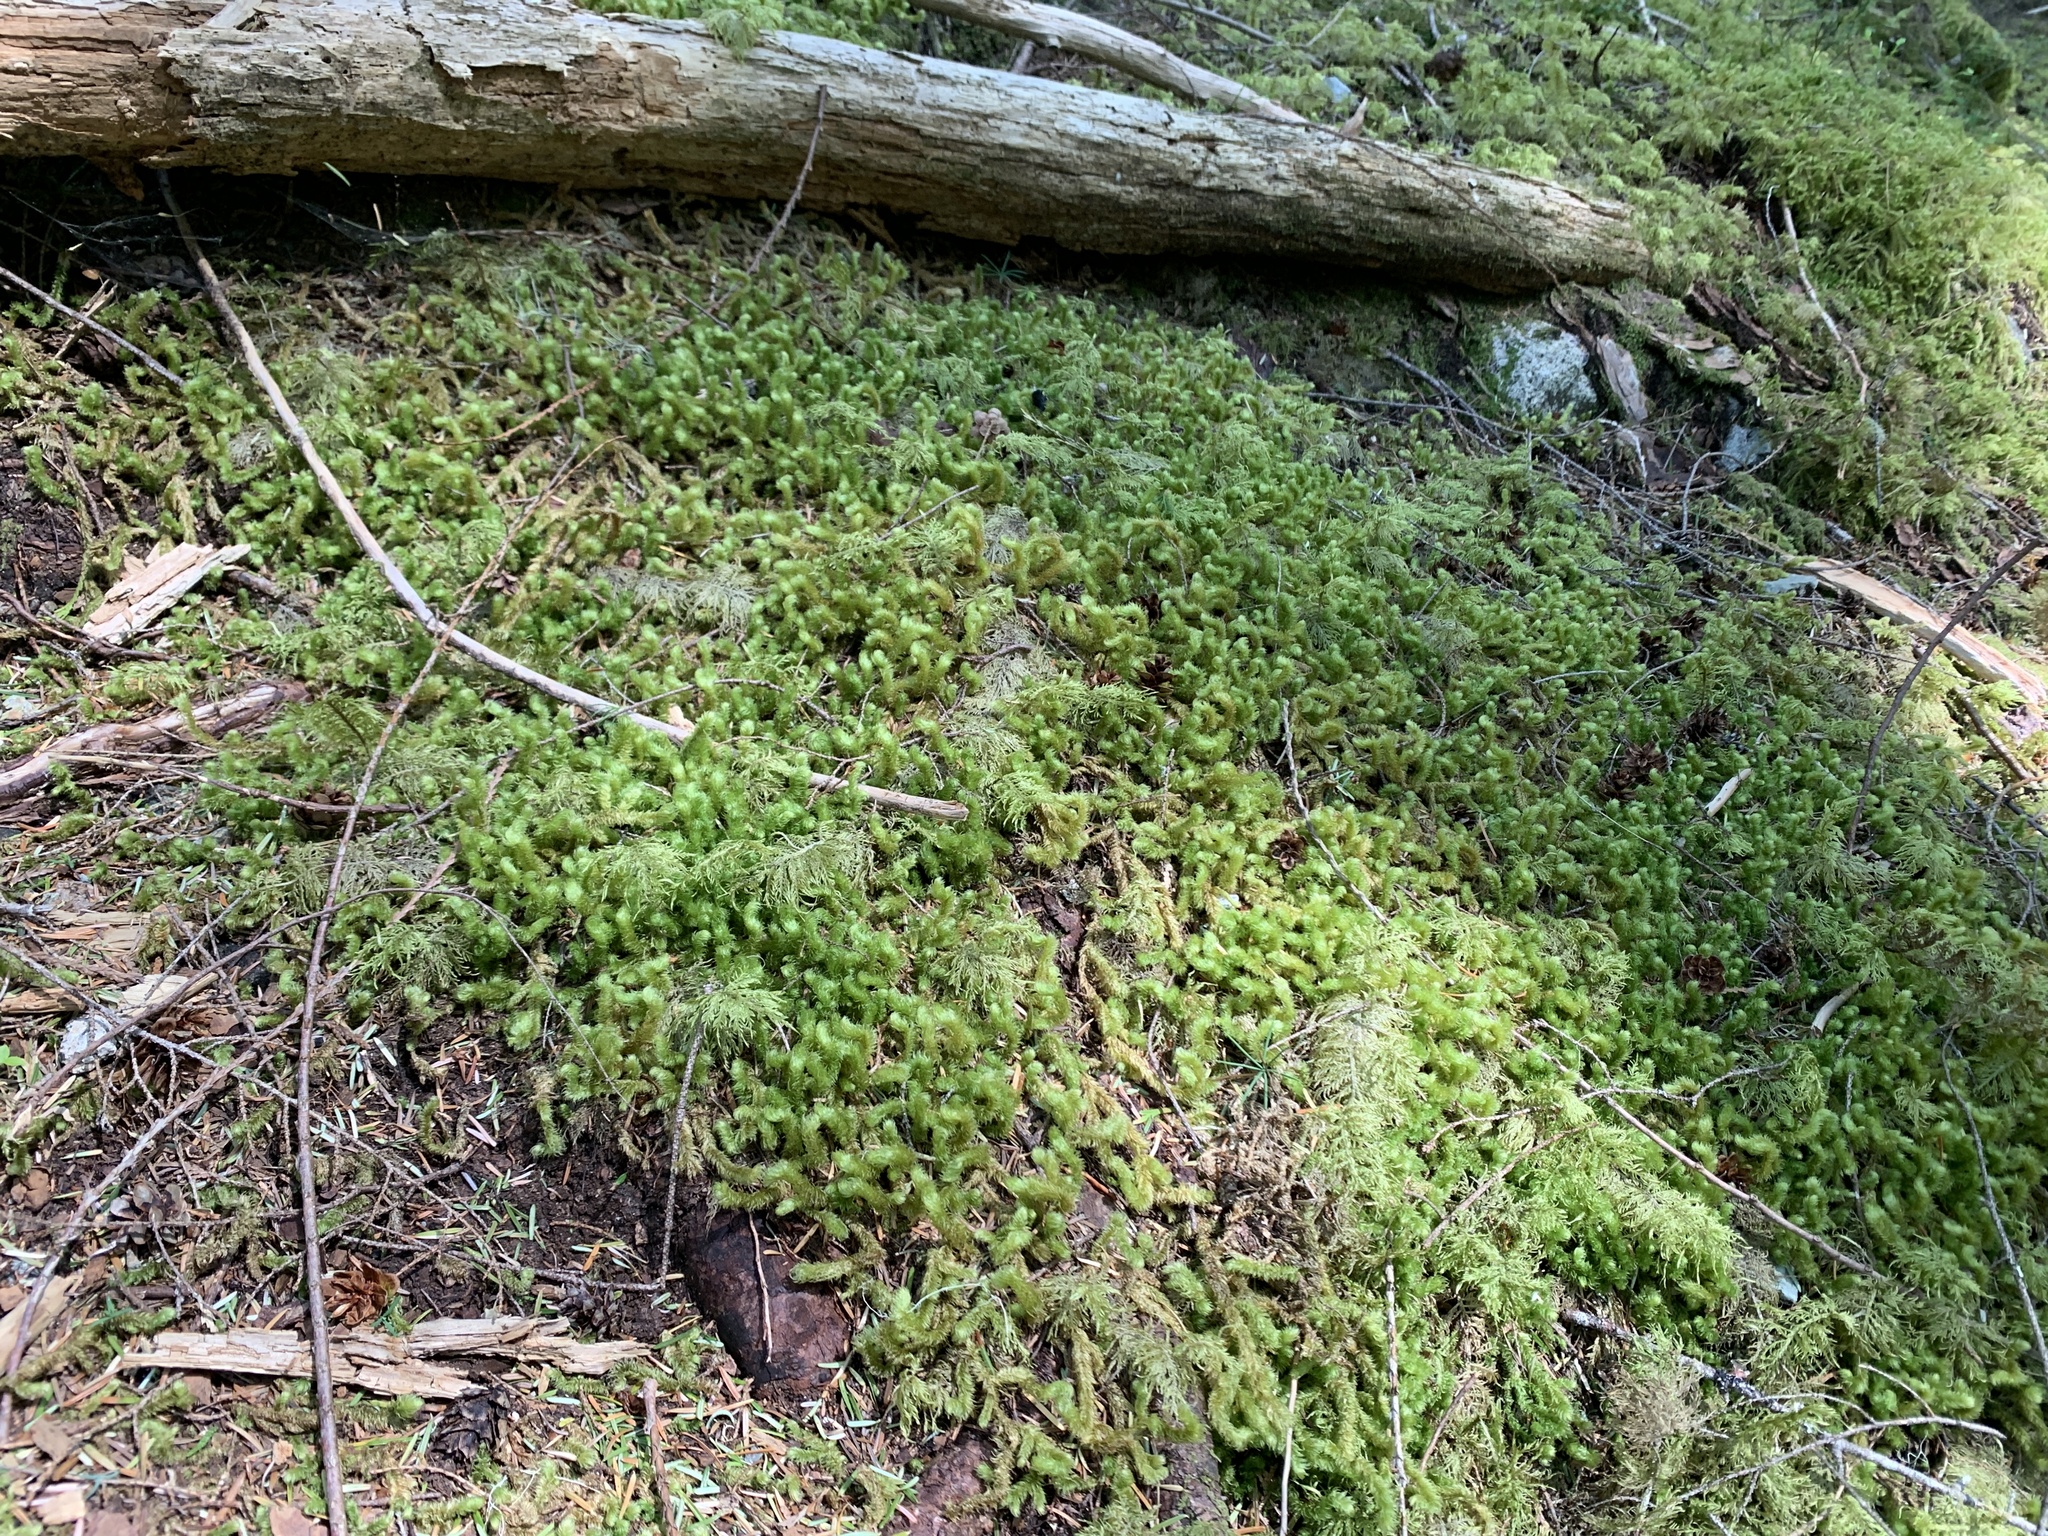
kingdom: Plantae
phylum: Bryophyta
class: Bryopsida
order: Hypnales
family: Hylocomiaceae
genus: Rhytidiopsis
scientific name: Rhytidiopsis robusta
